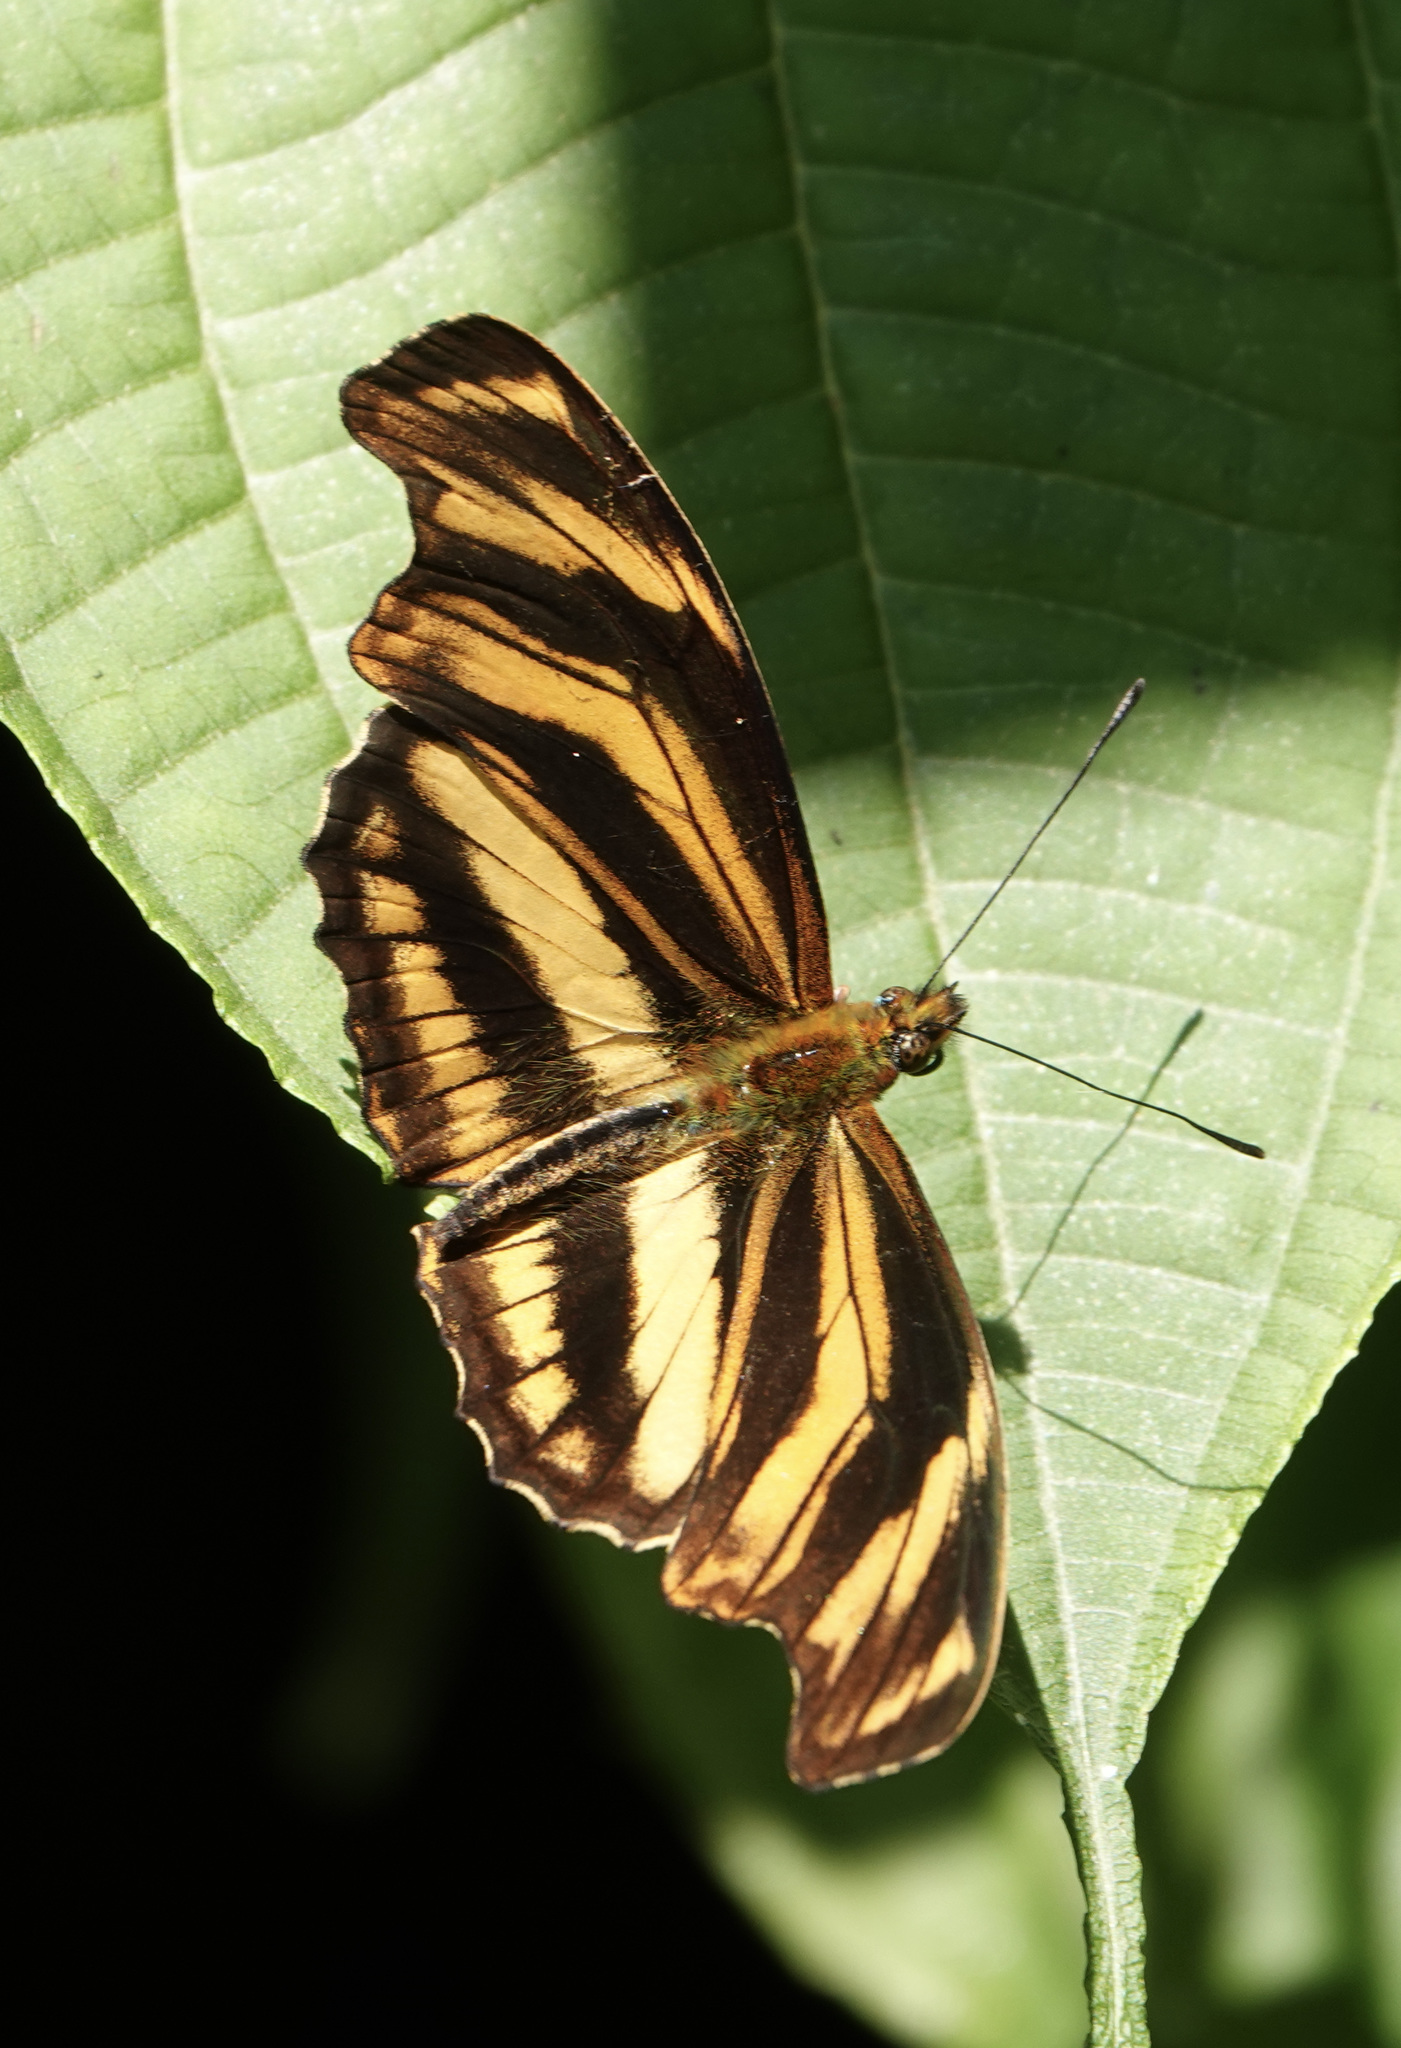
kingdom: Animalia
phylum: Arthropoda
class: Insecta
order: Lepidoptera
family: Nymphalidae
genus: Podotricha
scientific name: Podotricha judith
